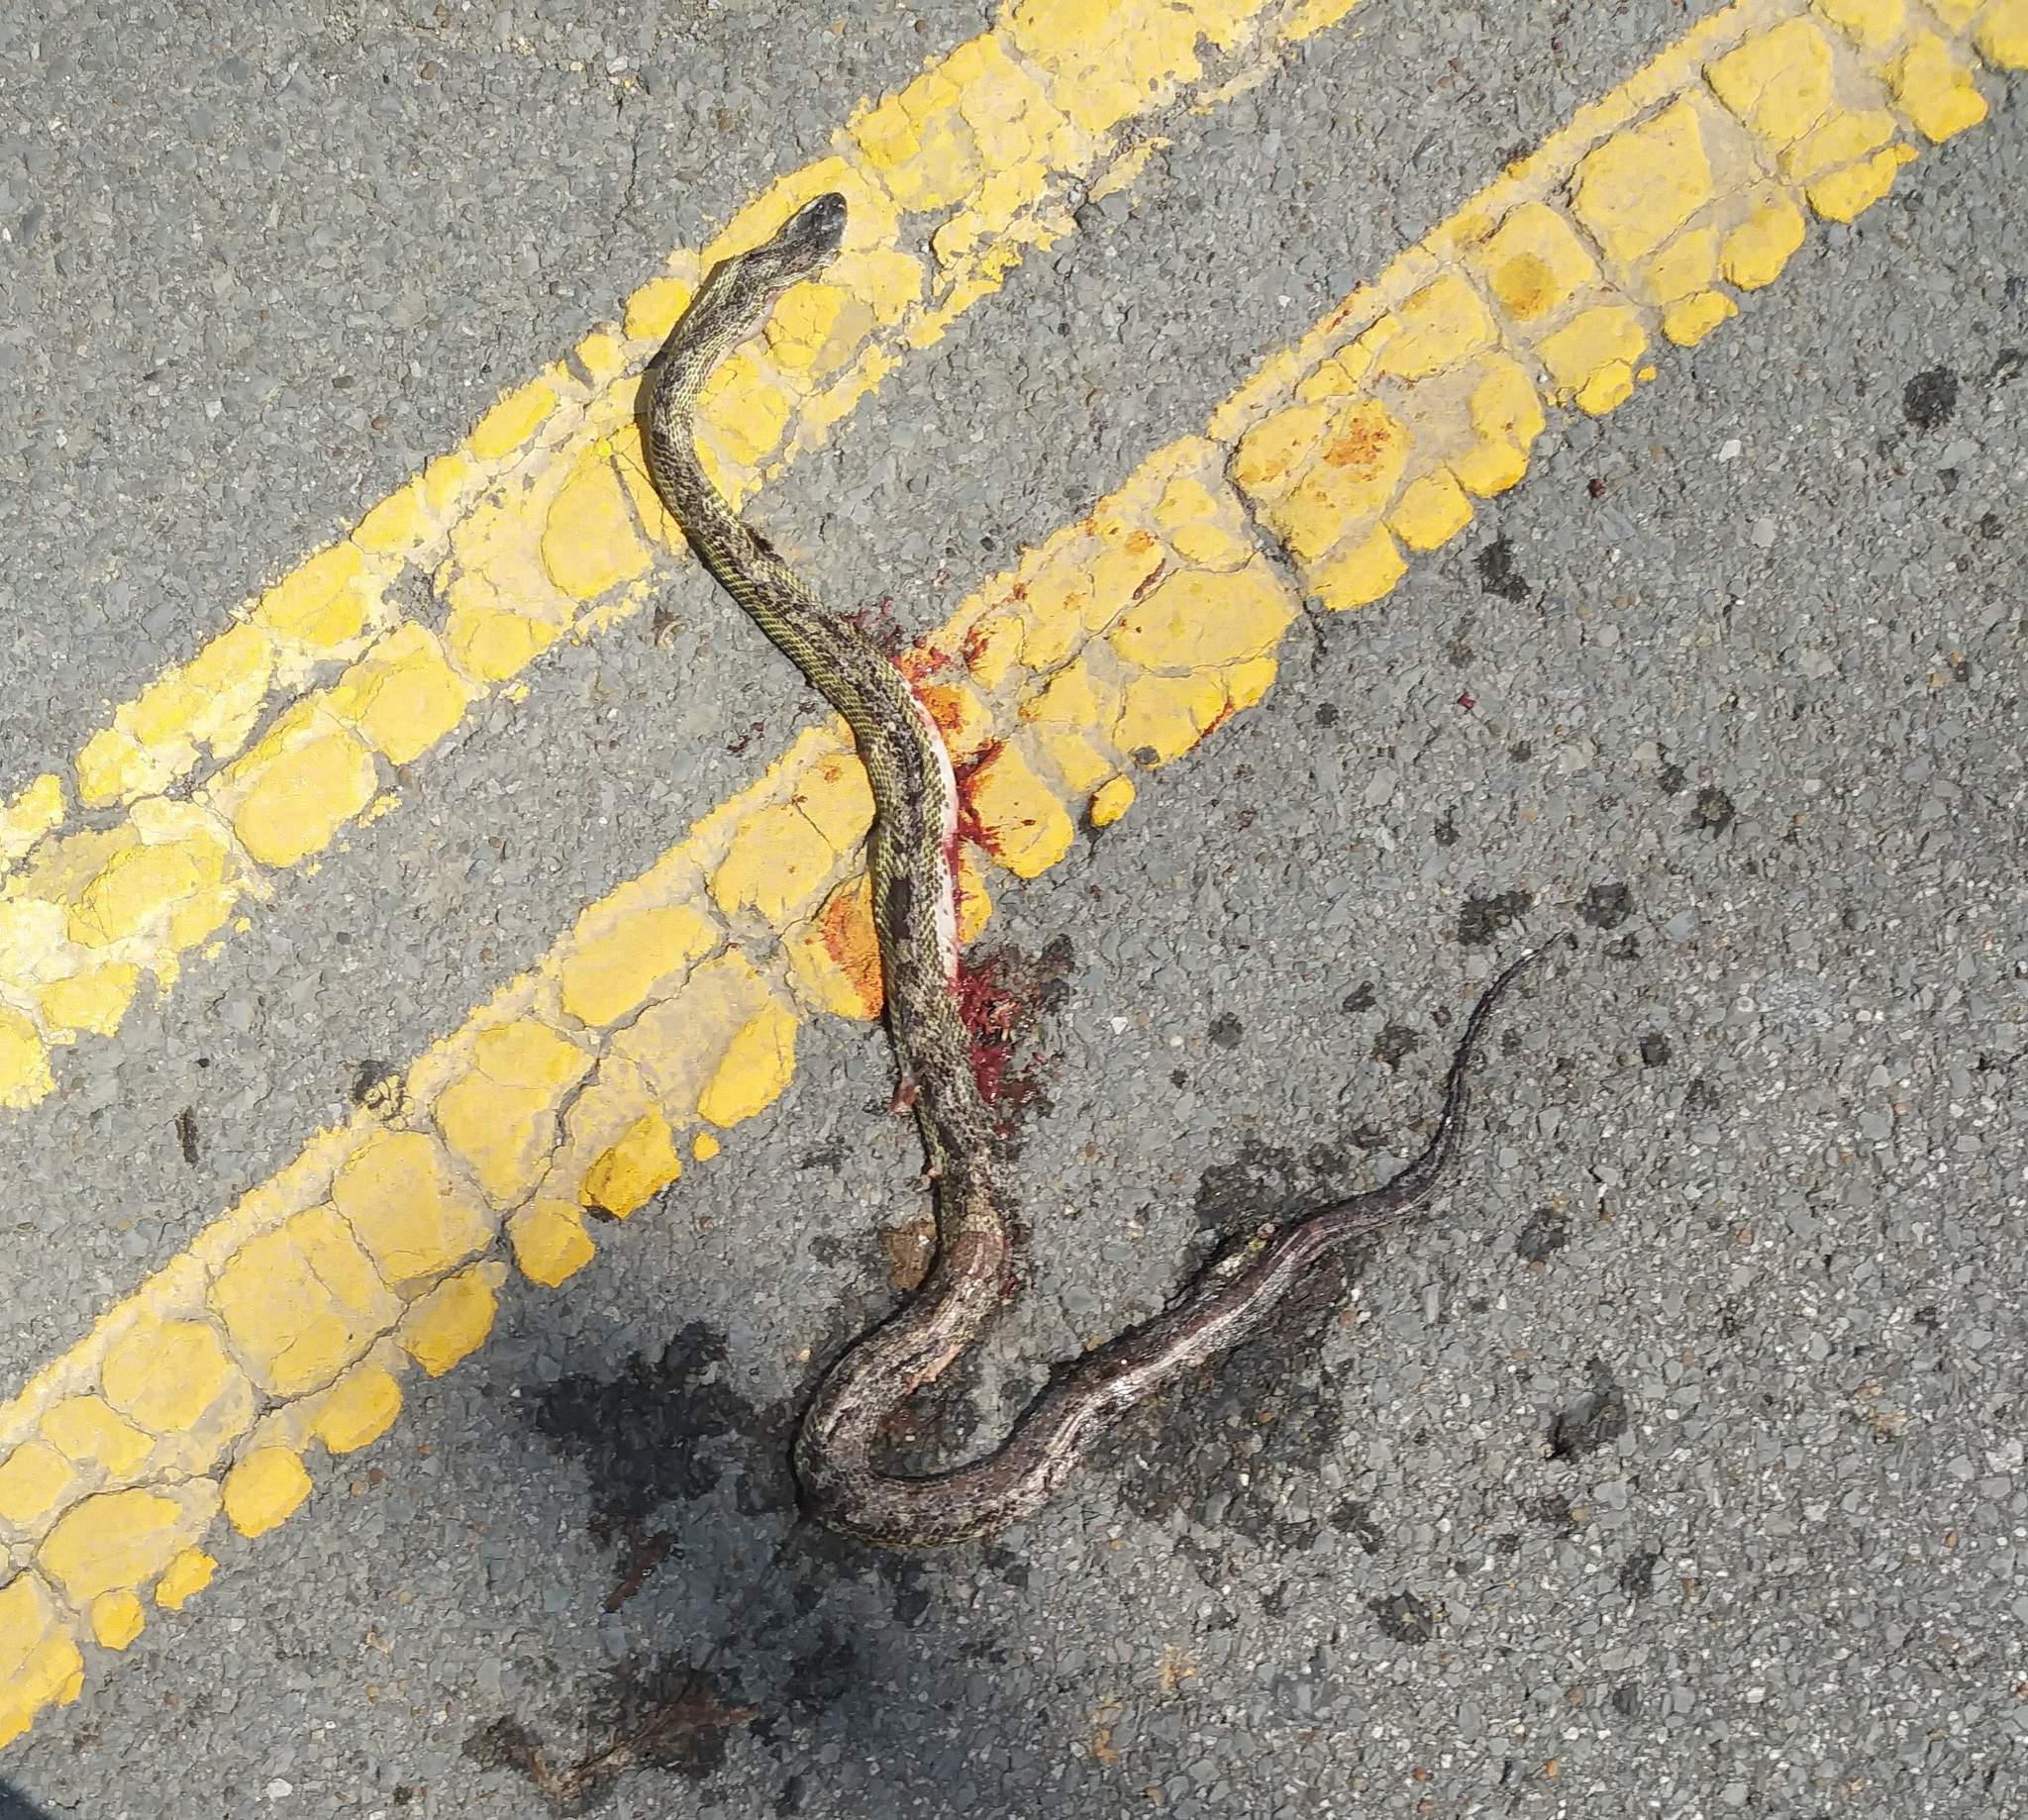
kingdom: Animalia
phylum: Chordata
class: Squamata
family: Colubridae
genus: Pantherophis
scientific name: Pantherophis spiloides
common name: Gray rat snake
